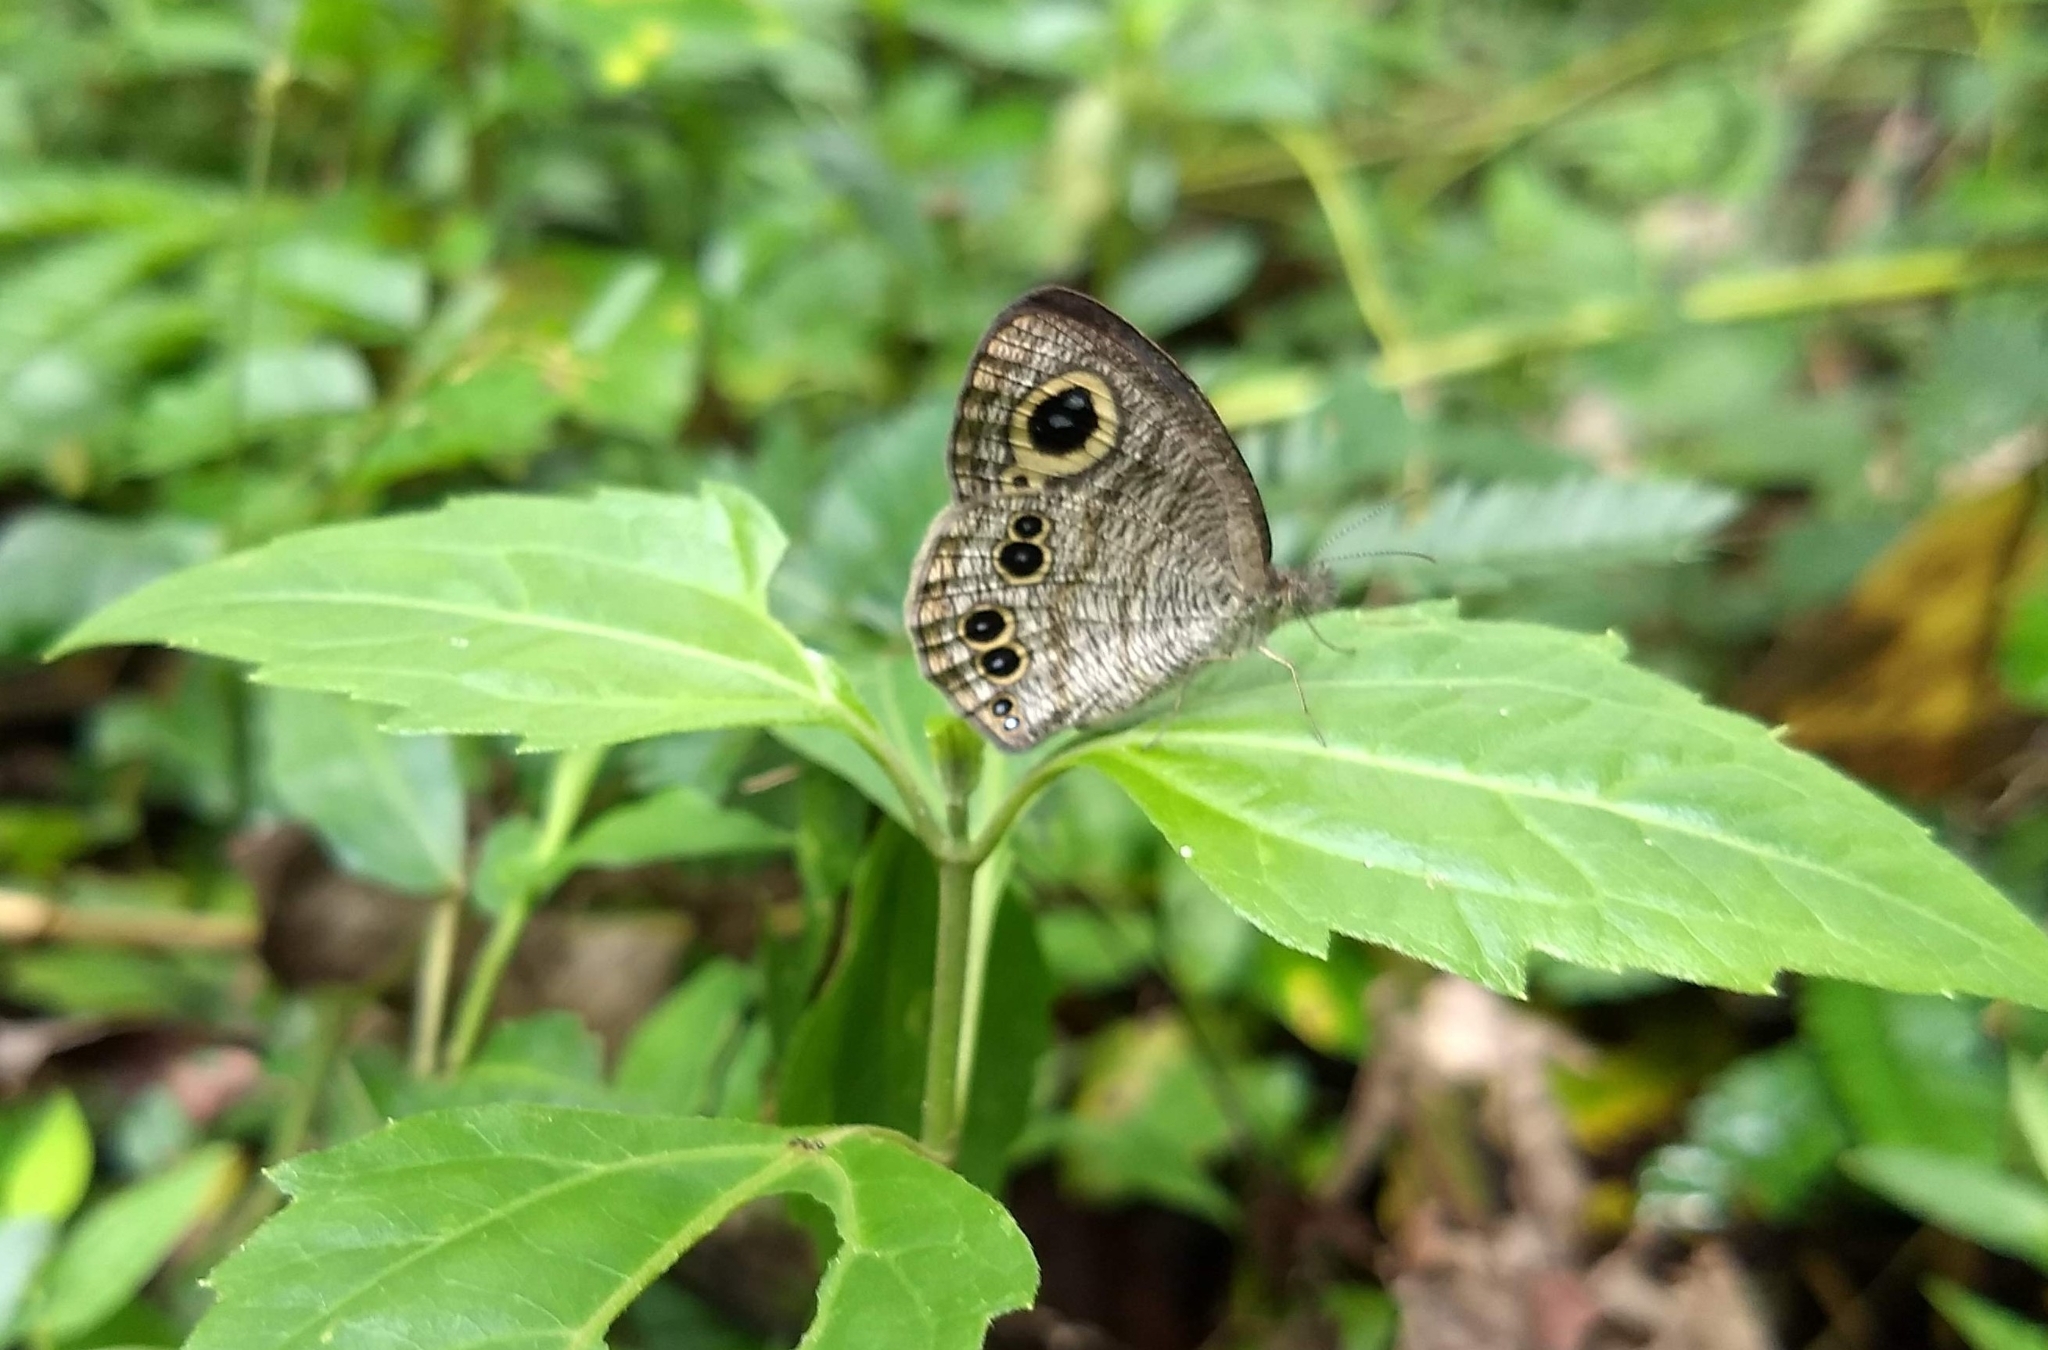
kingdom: Animalia
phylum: Arthropoda
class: Insecta
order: Lepidoptera
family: Nymphalidae
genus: Ypthima
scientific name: Ypthima baldus
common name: Common five-ring
